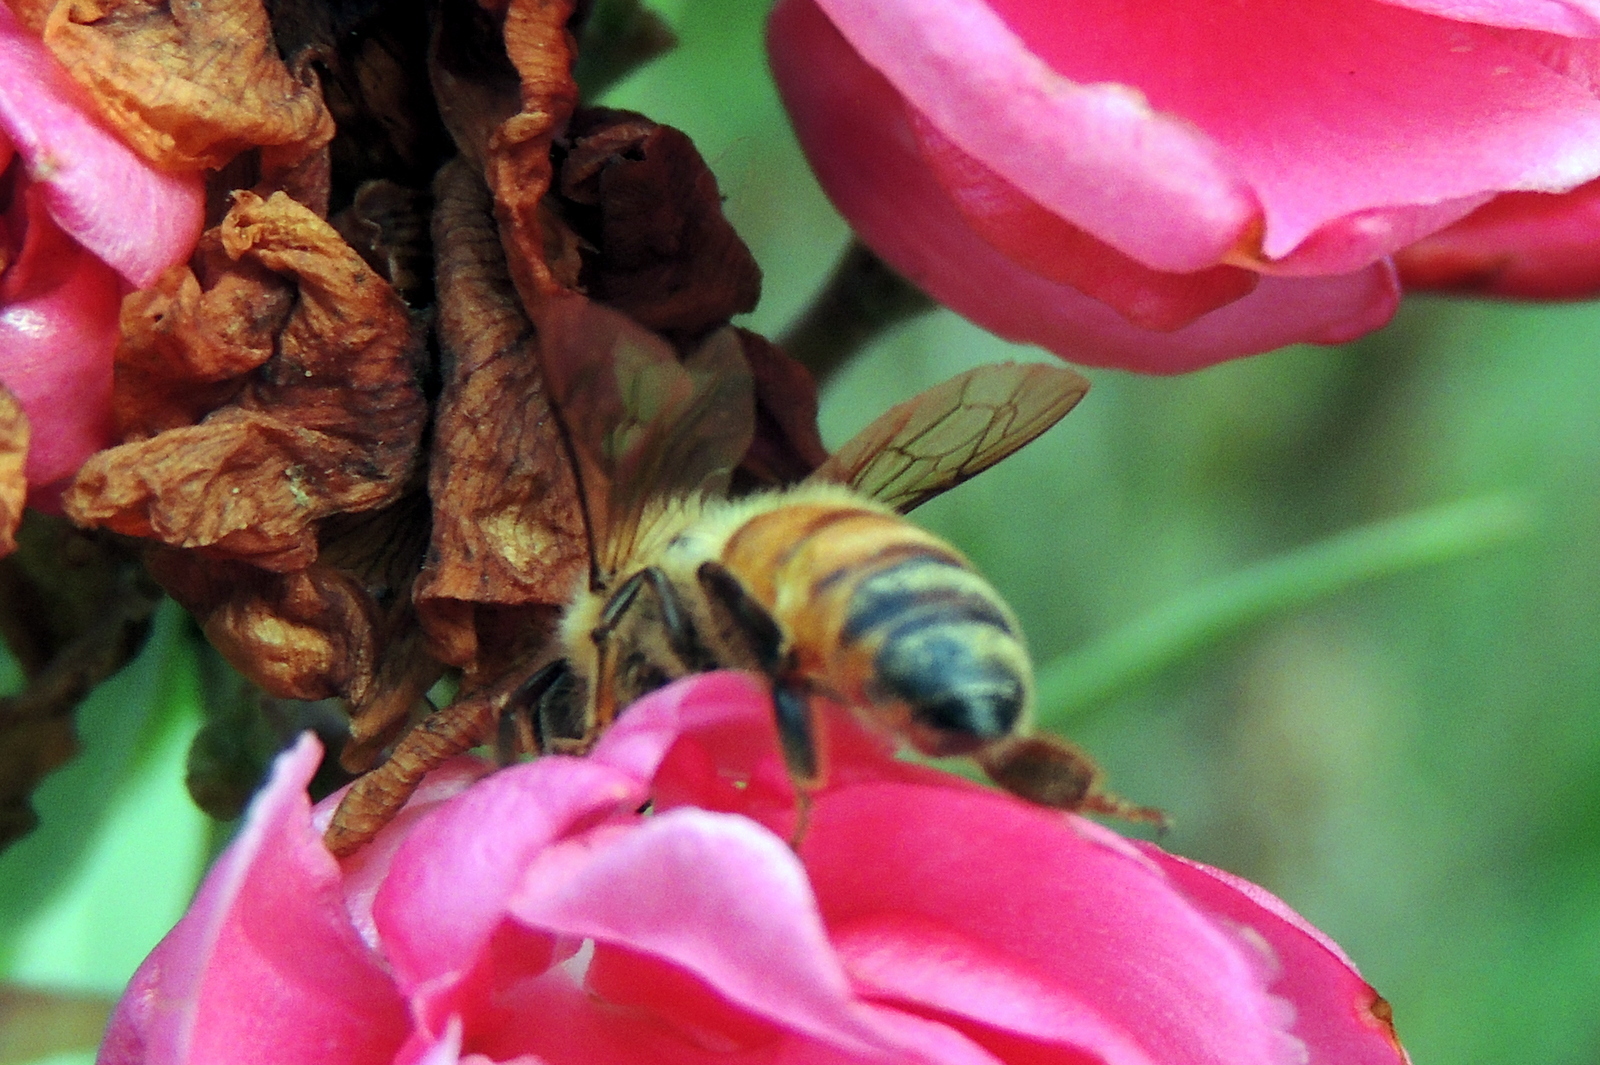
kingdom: Animalia
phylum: Arthropoda
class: Insecta
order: Hymenoptera
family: Apidae
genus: Apis
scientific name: Apis mellifera
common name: Honey bee
